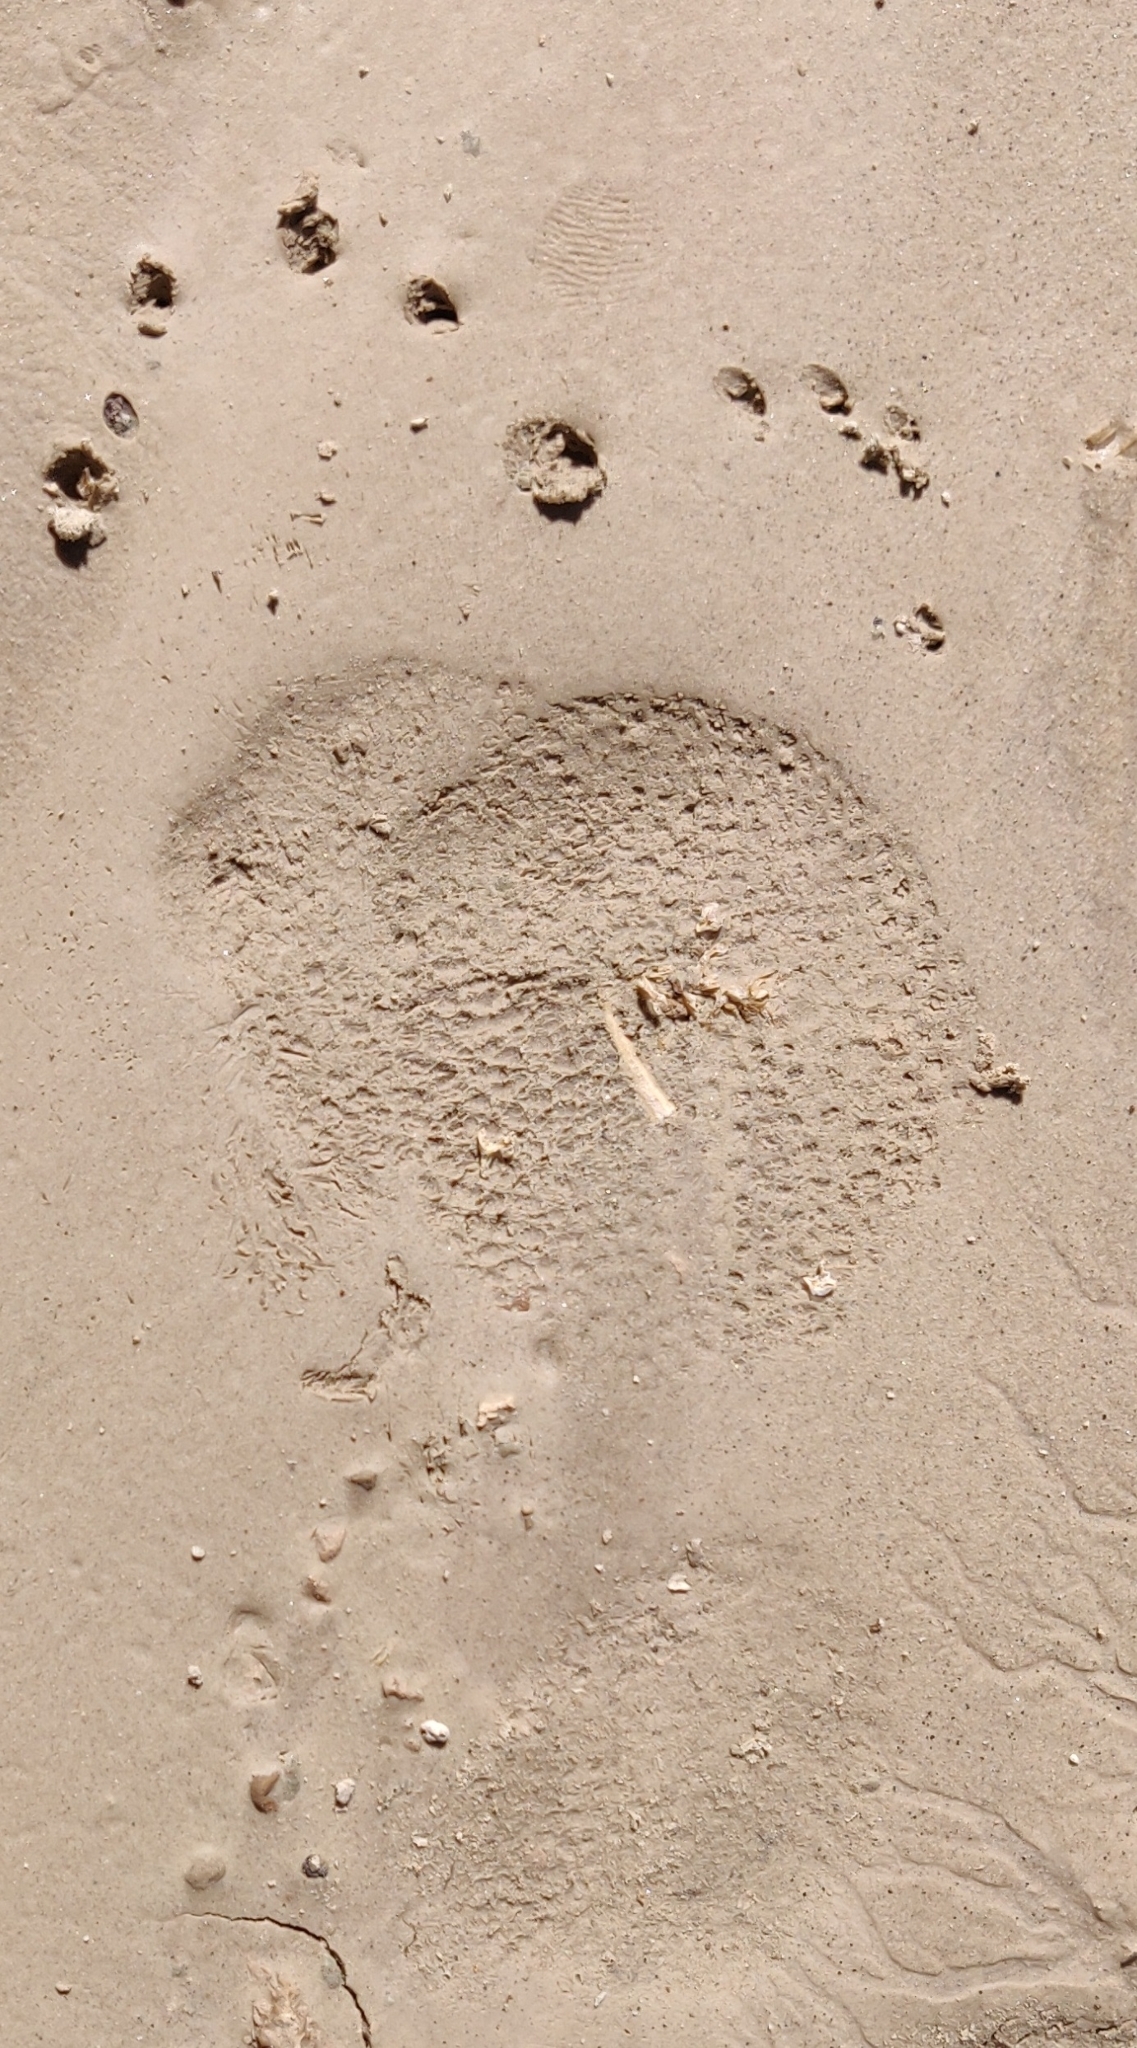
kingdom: Animalia
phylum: Chordata
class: Mammalia
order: Rodentia
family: Erethizontidae
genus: Erethizon
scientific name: Erethizon dorsatus
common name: North american porcupine
